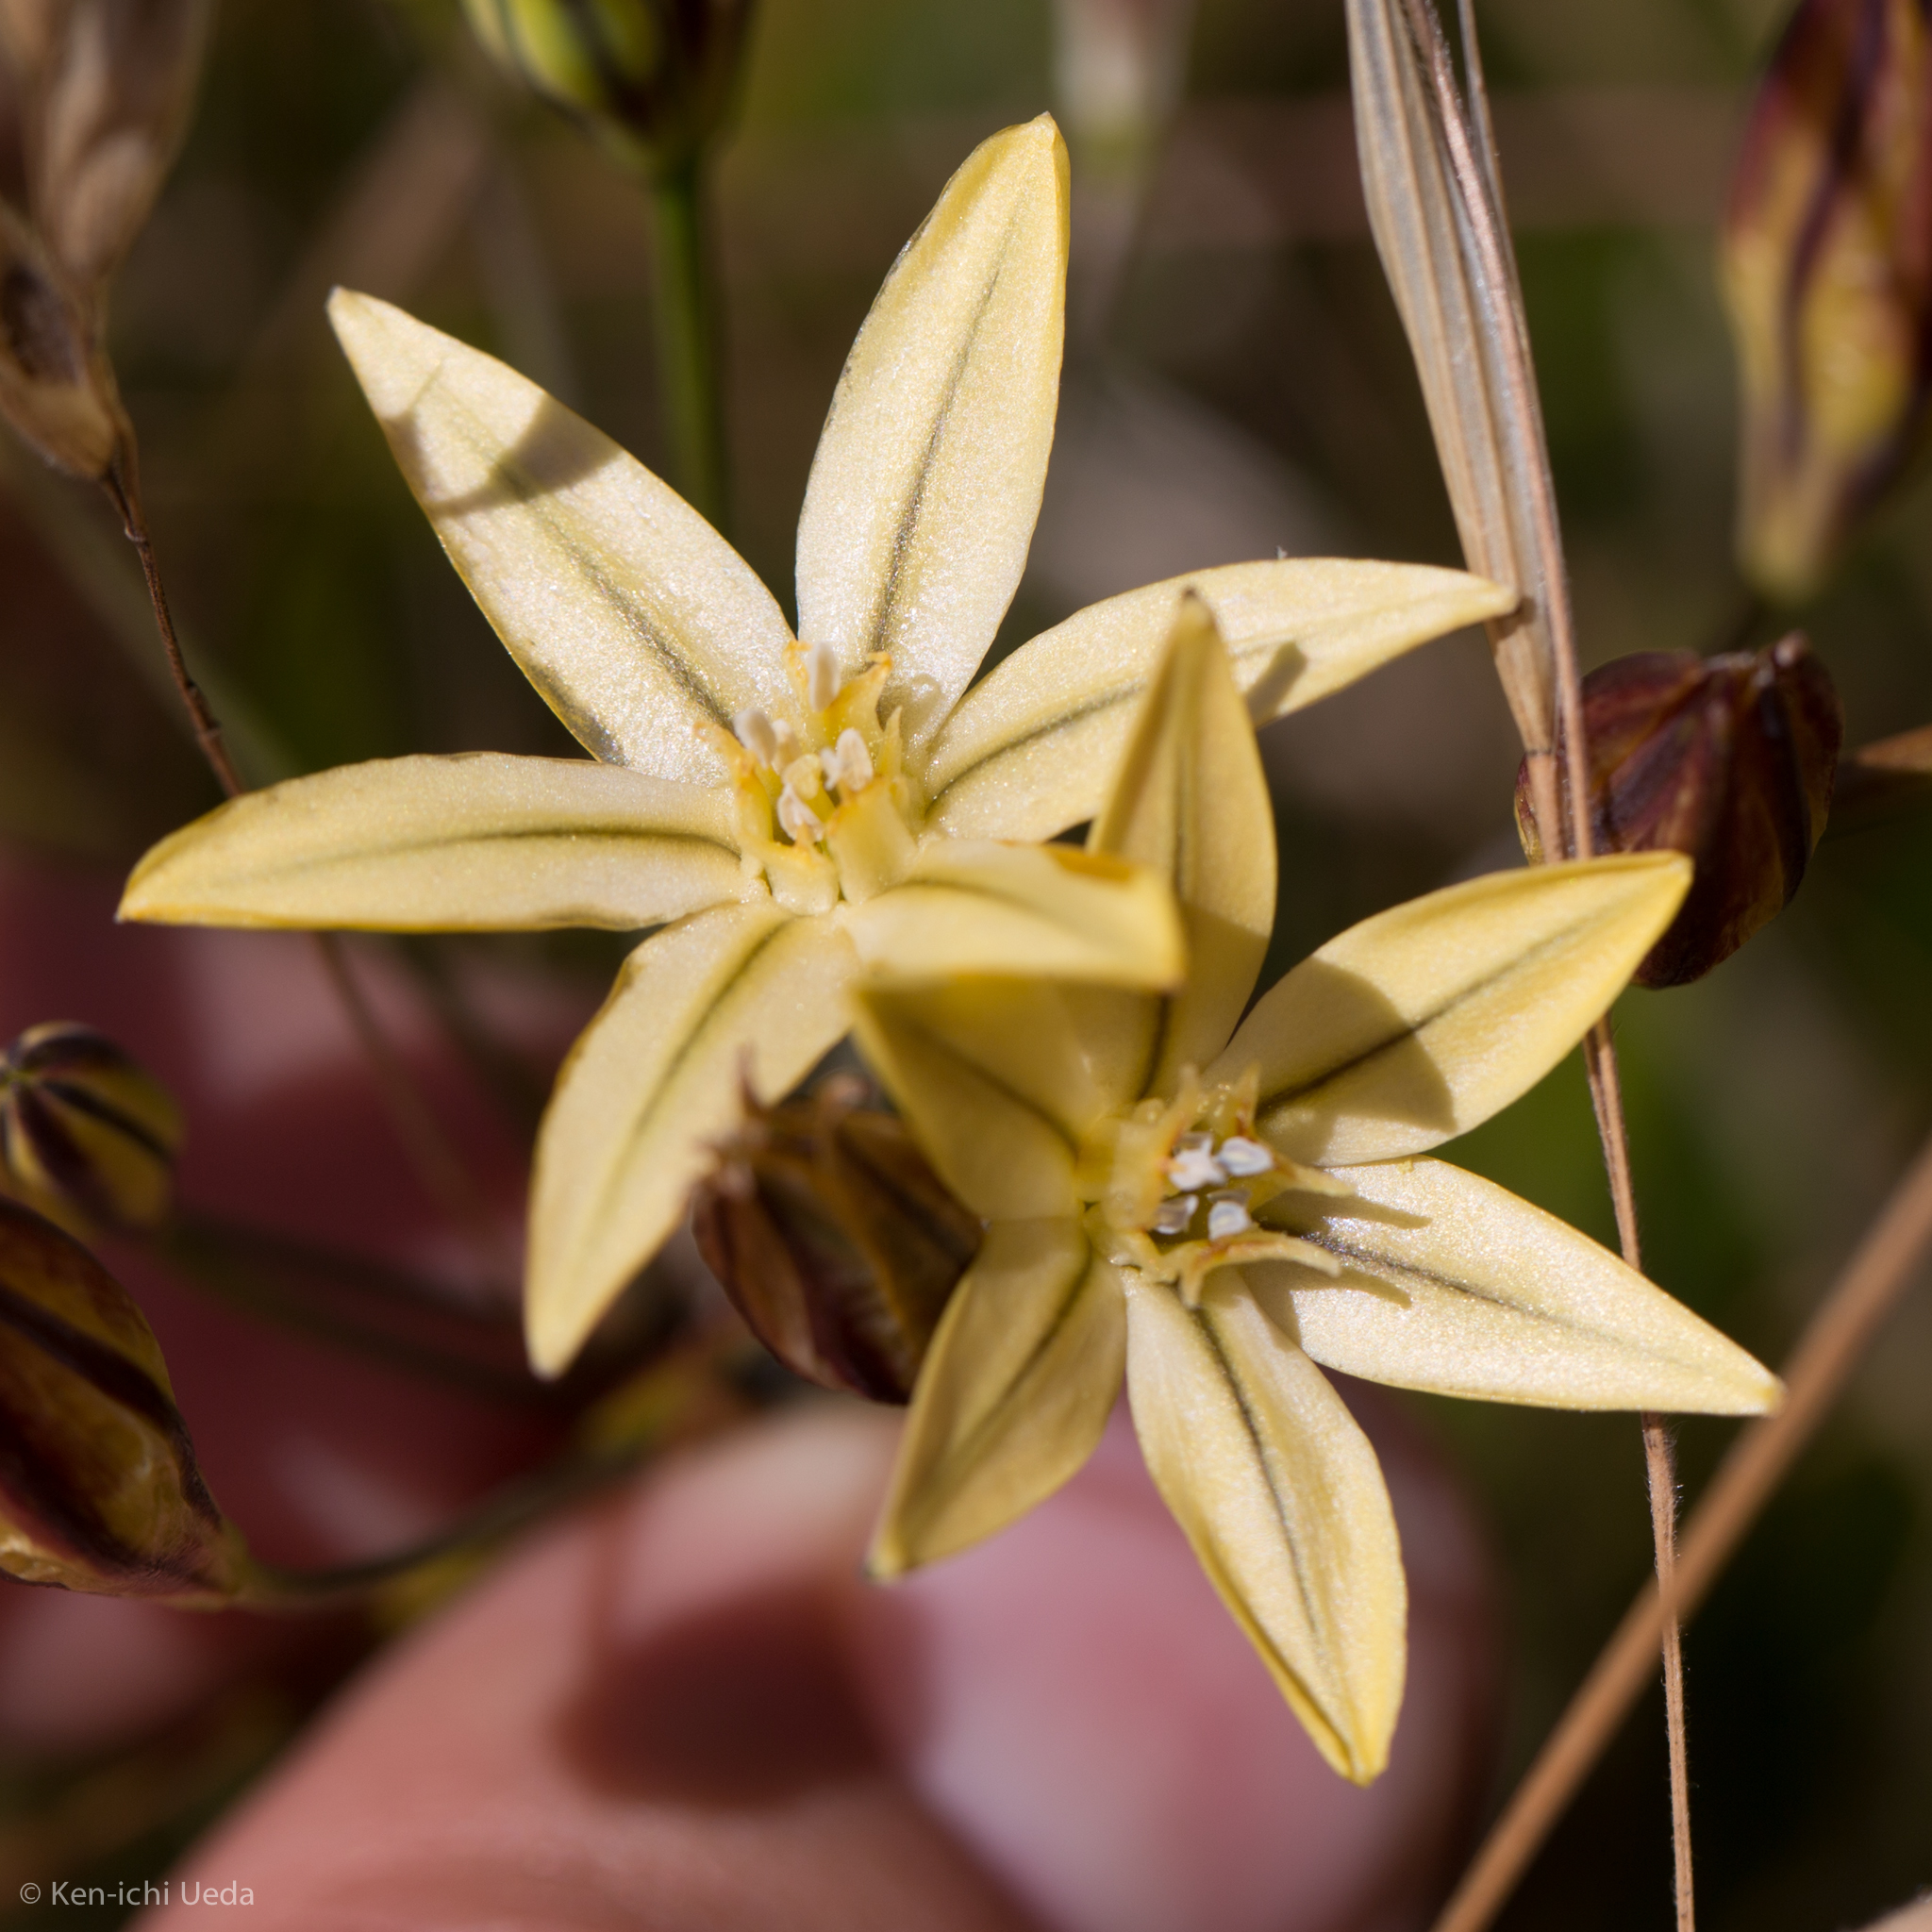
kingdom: Plantae
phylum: Tracheophyta
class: Liliopsida
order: Asparagales
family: Asparagaceae
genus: Triteleia
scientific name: Triteleia ixioides
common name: Yellow-brodiaea
